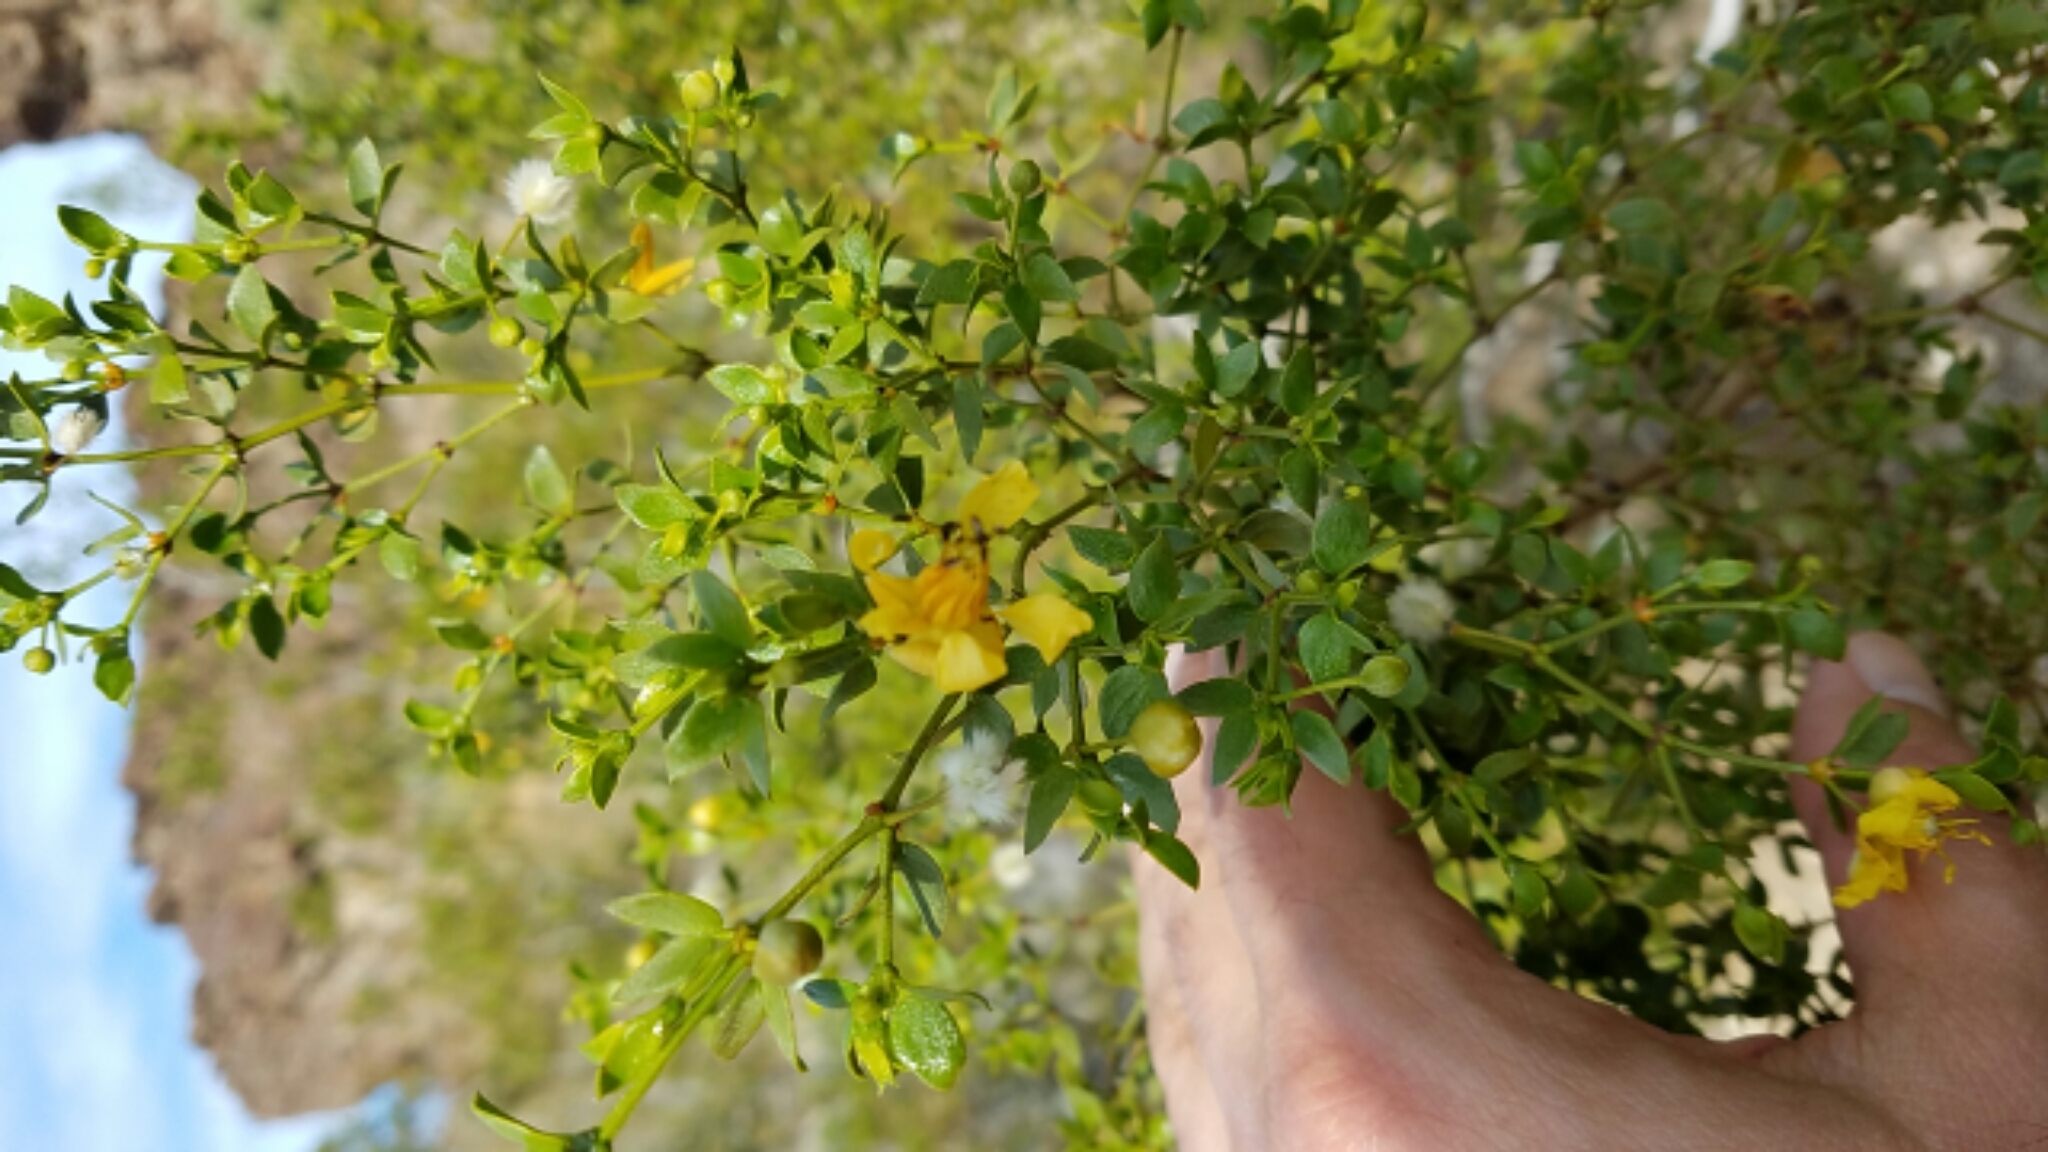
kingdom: Plantae
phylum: Tracheophyta
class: Magnoliopsida
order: Zygophyllales
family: Zygophyllaceae
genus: Larrea
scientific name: Larrea tridentata
